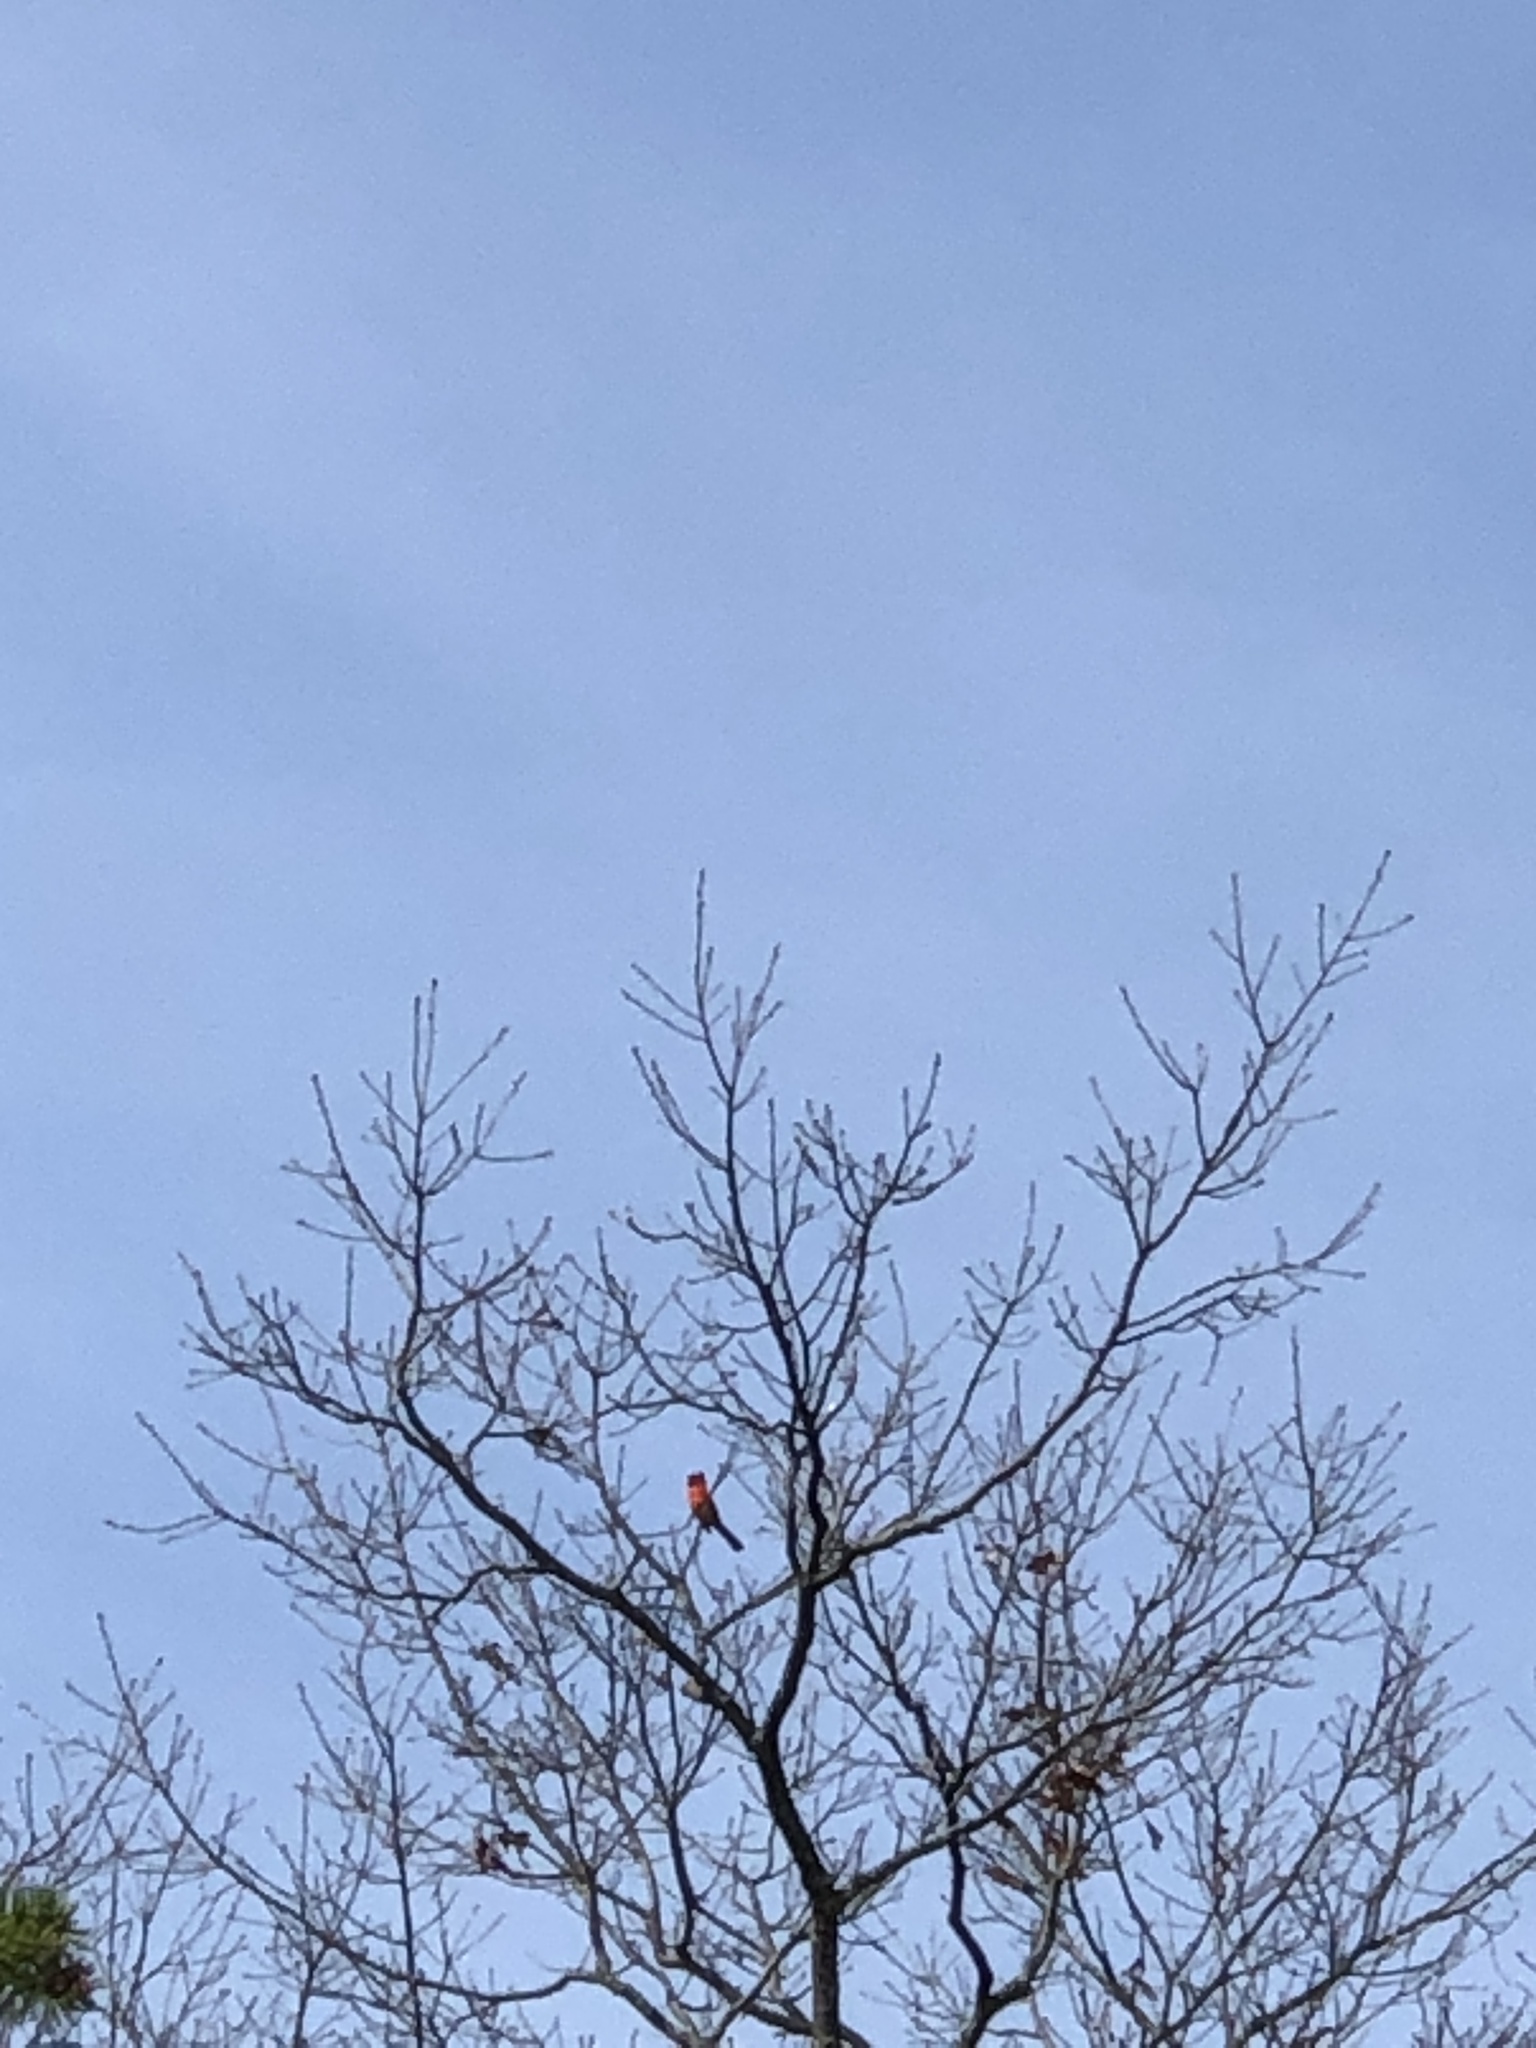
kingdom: Animalia
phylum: Chordata
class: Aves
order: Passeriformes
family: Cardinalidae
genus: Cardinalis
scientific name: Cardinalis cardinalis
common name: Northern cardinal
